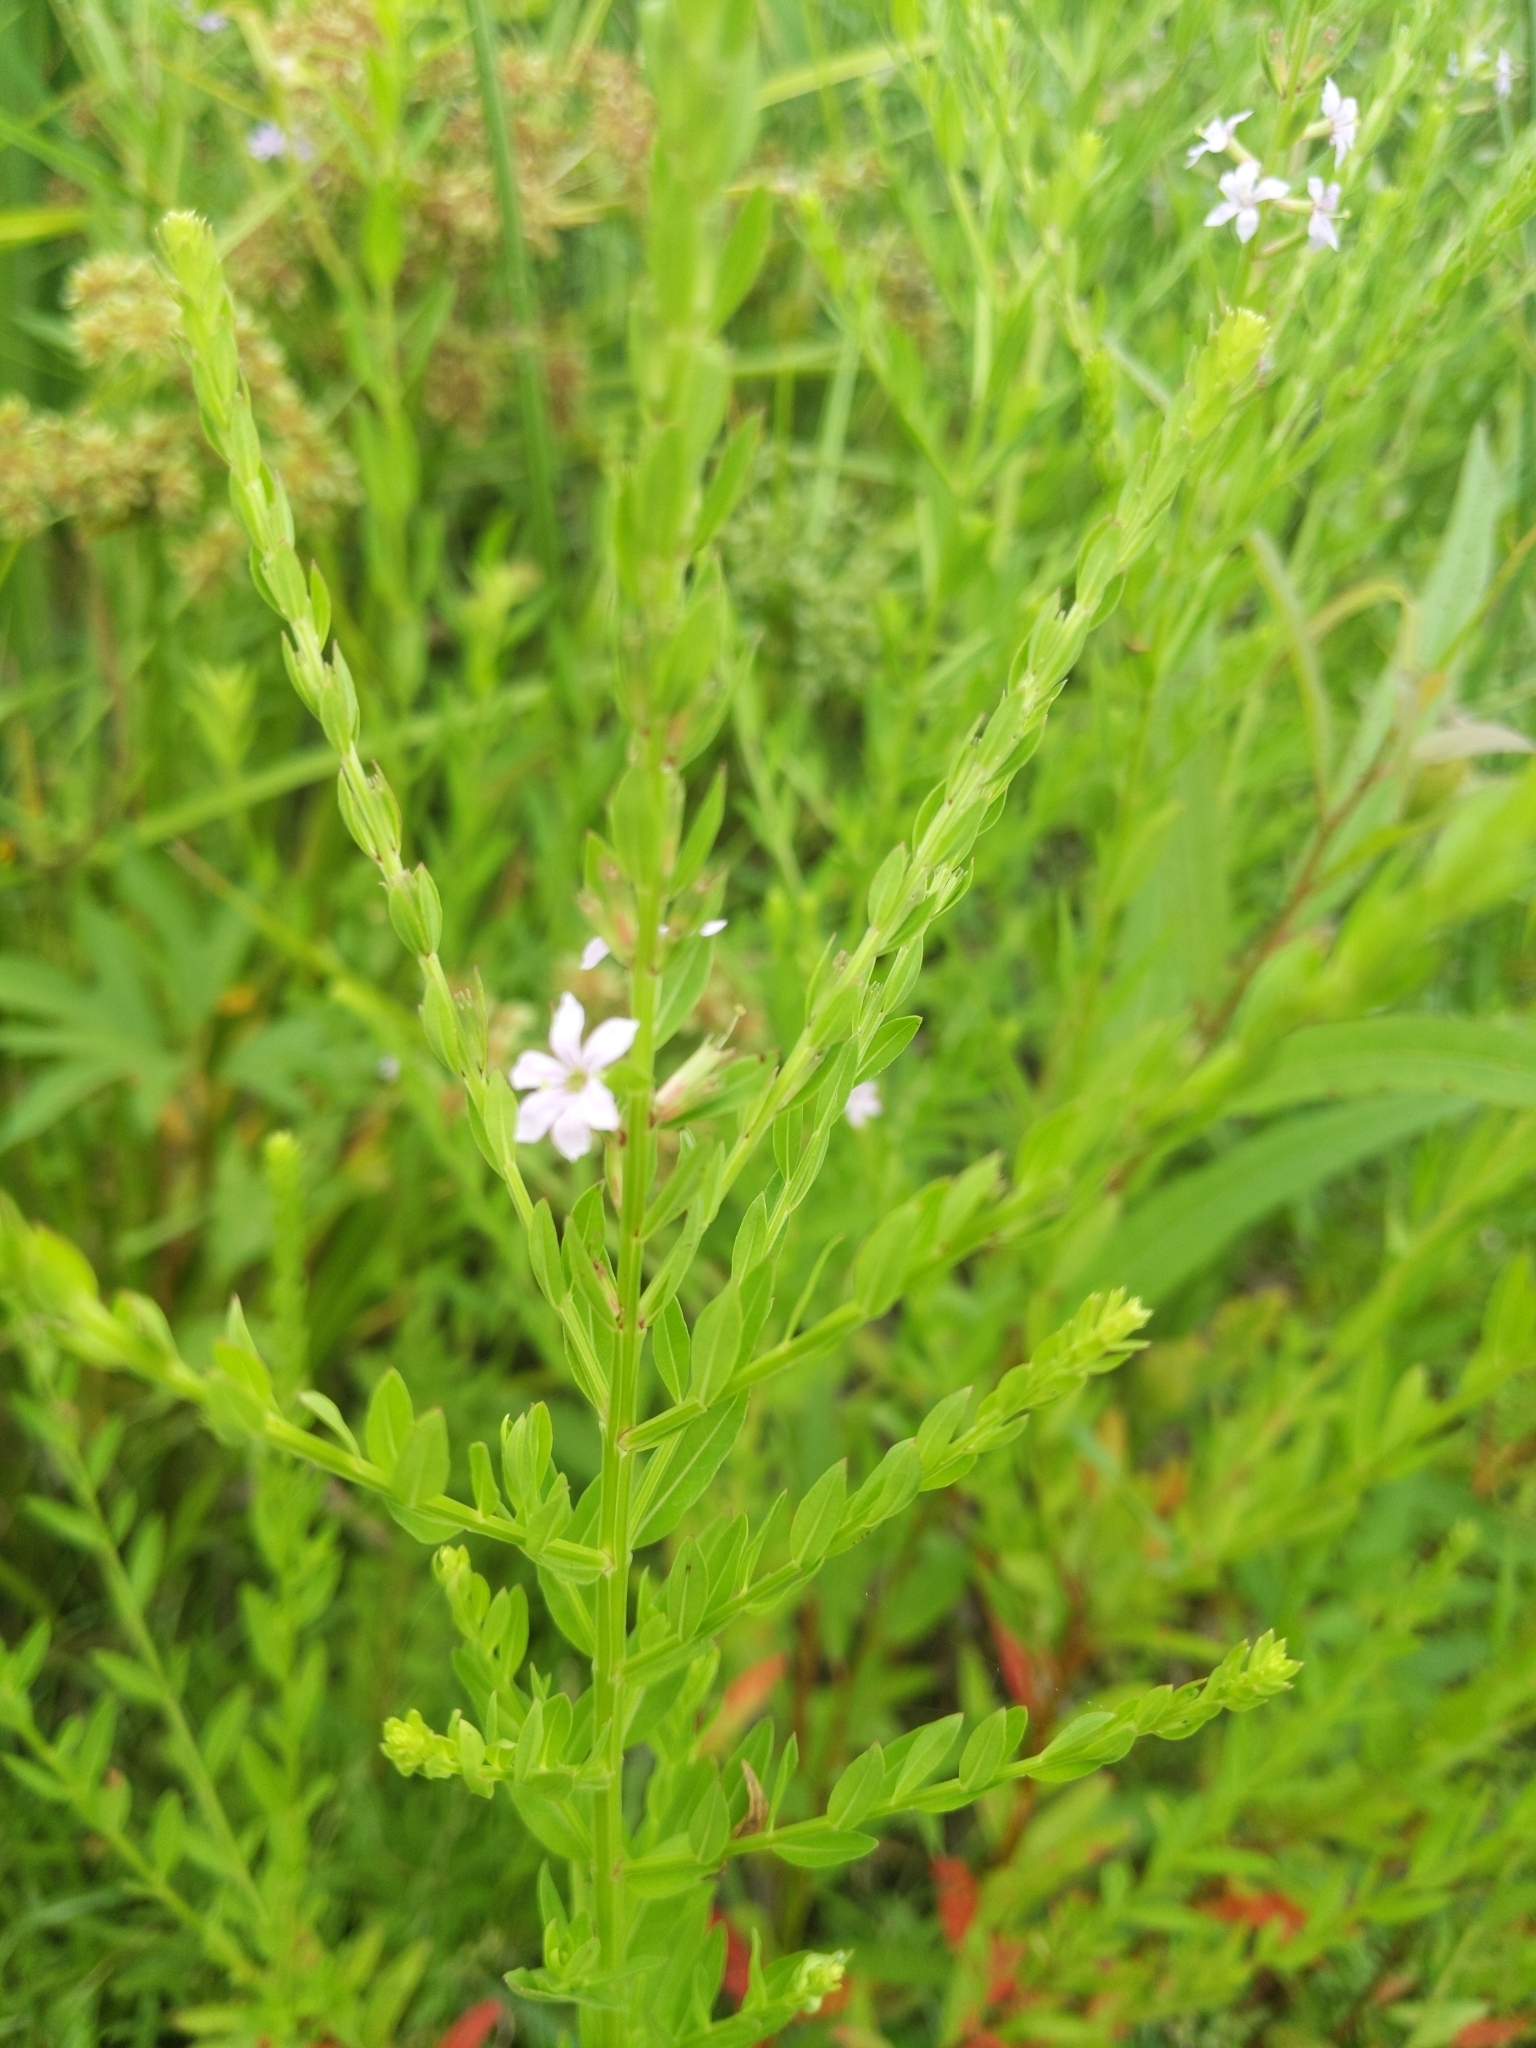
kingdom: Plantae
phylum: Tracheophyta
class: Magnoliopsida
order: Myrtales
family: Lythraceae
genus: Lythrum
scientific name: Lythrum alatum
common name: Winged loosestrife
